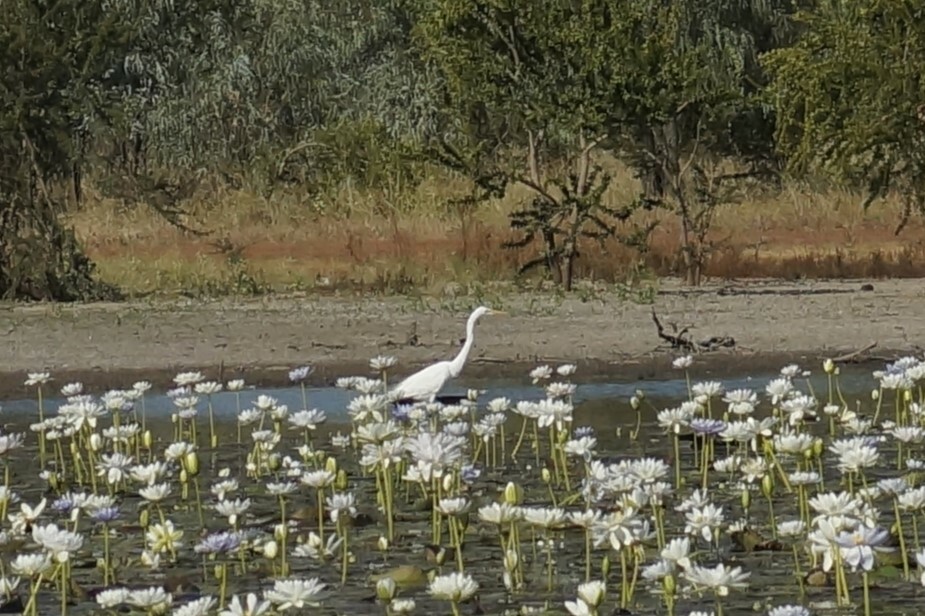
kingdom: Animalia
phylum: Chordata
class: Aves
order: Pelecaniformes
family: Ardeidae
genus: Ardea
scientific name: Ardea alba
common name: Great egret
